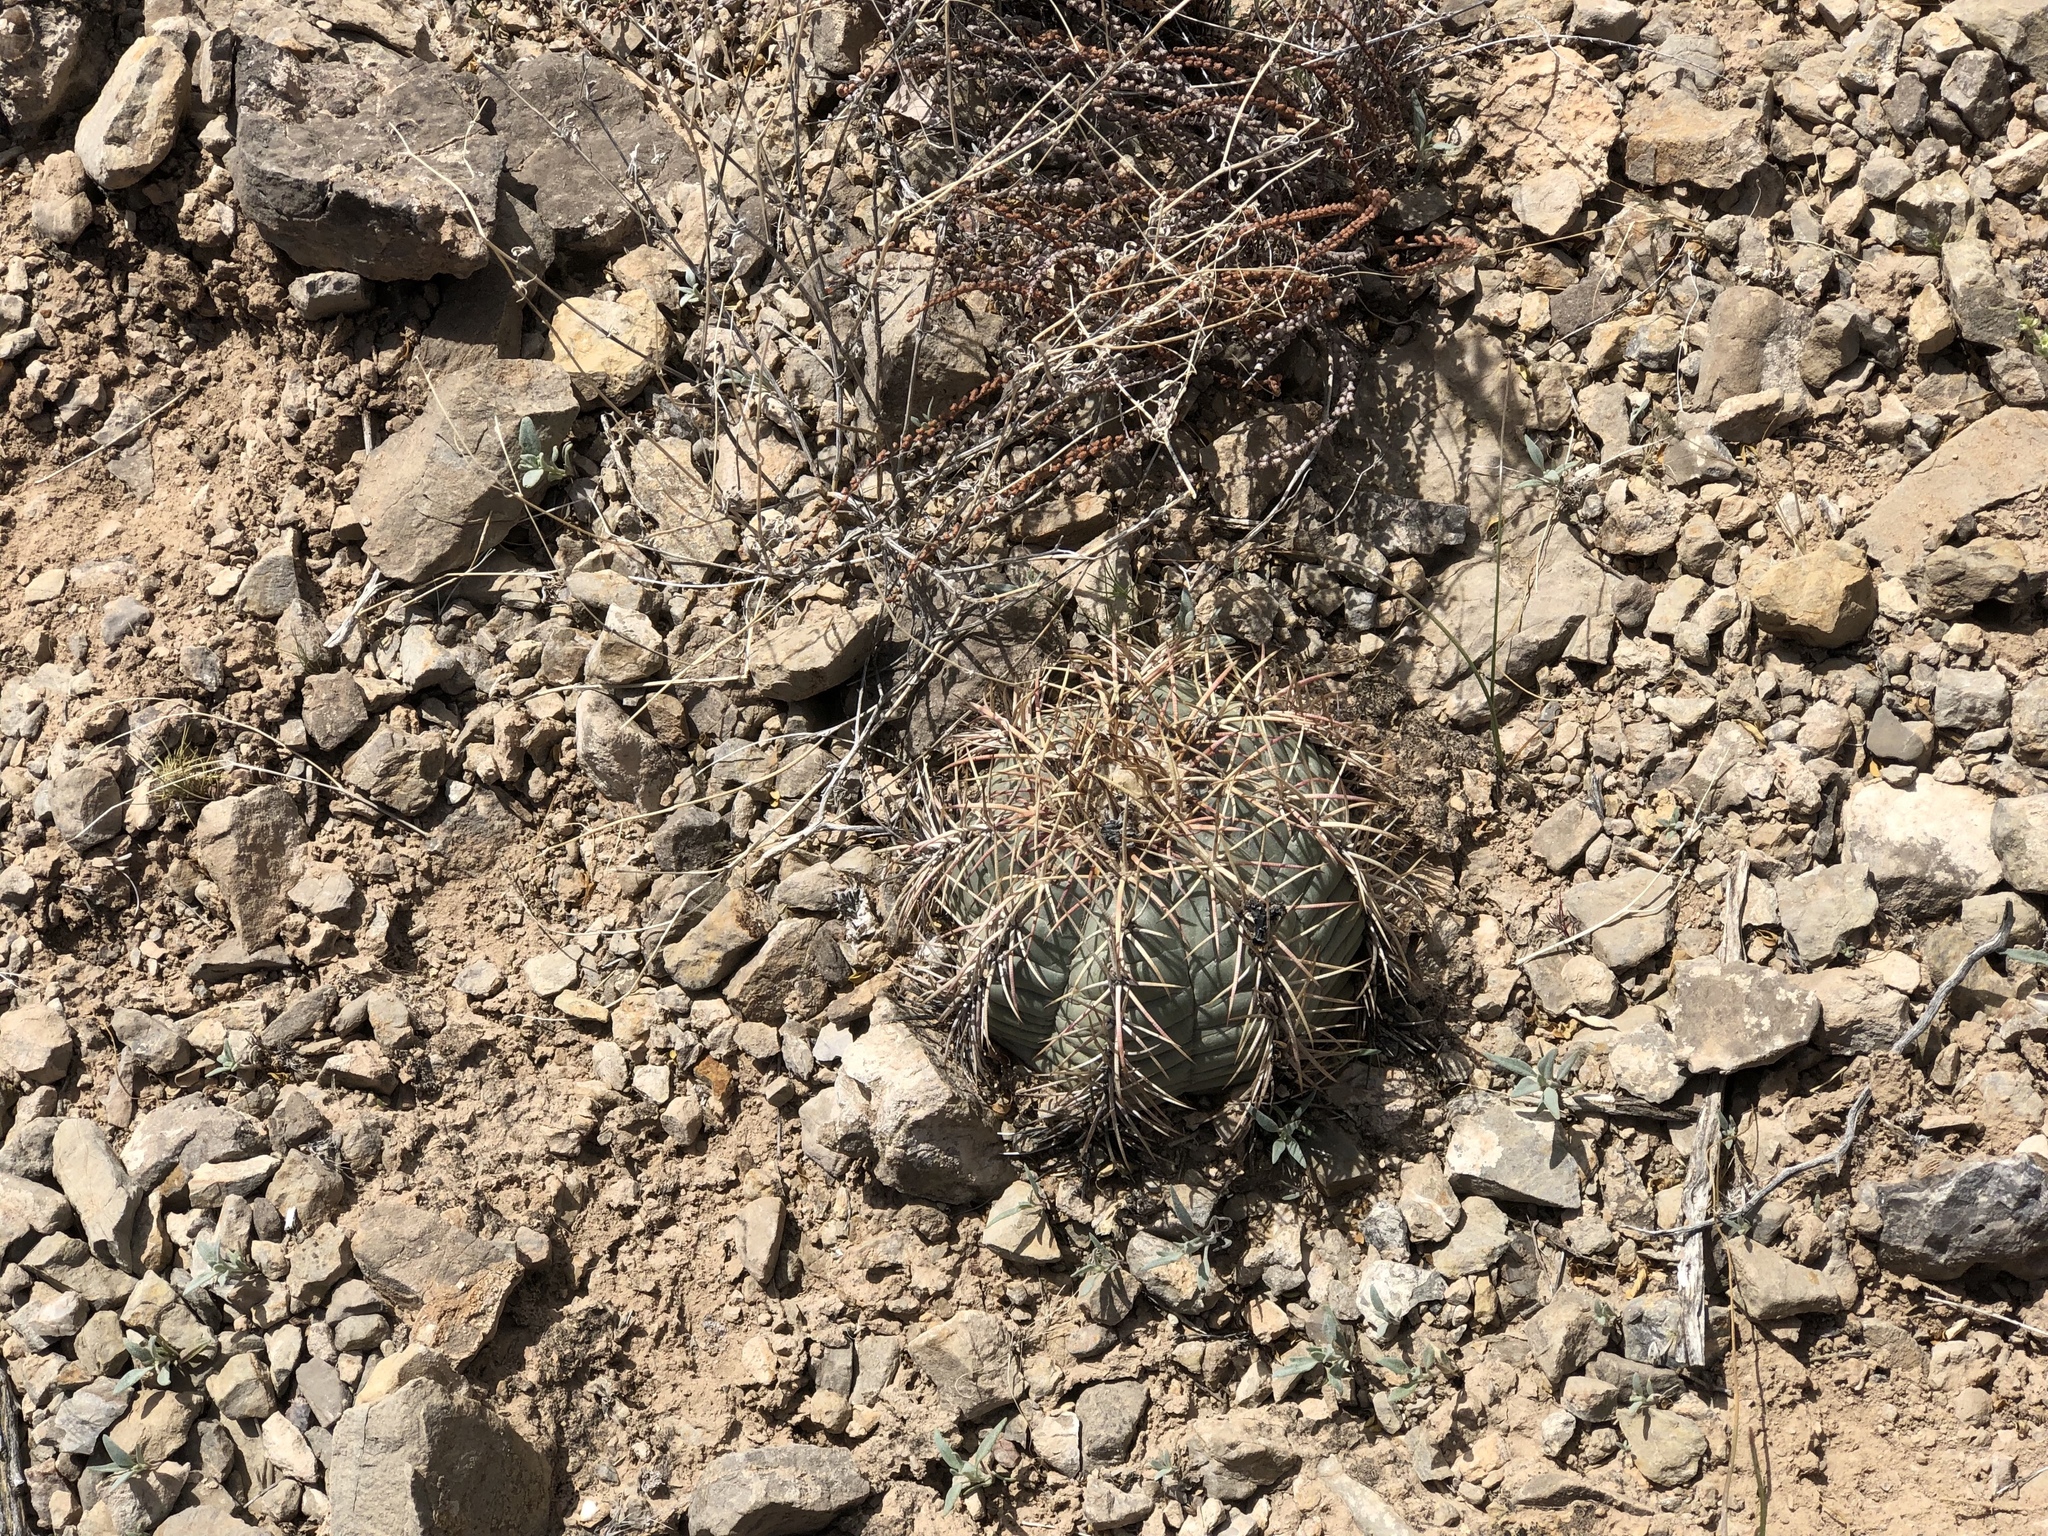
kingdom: Plantae
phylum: Tracheophyta
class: Magnoliopsida
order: Caryophyllales
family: Cactaceae
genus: Echinocactus
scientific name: Echinocactus horizonthalonius
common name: Devilshead
